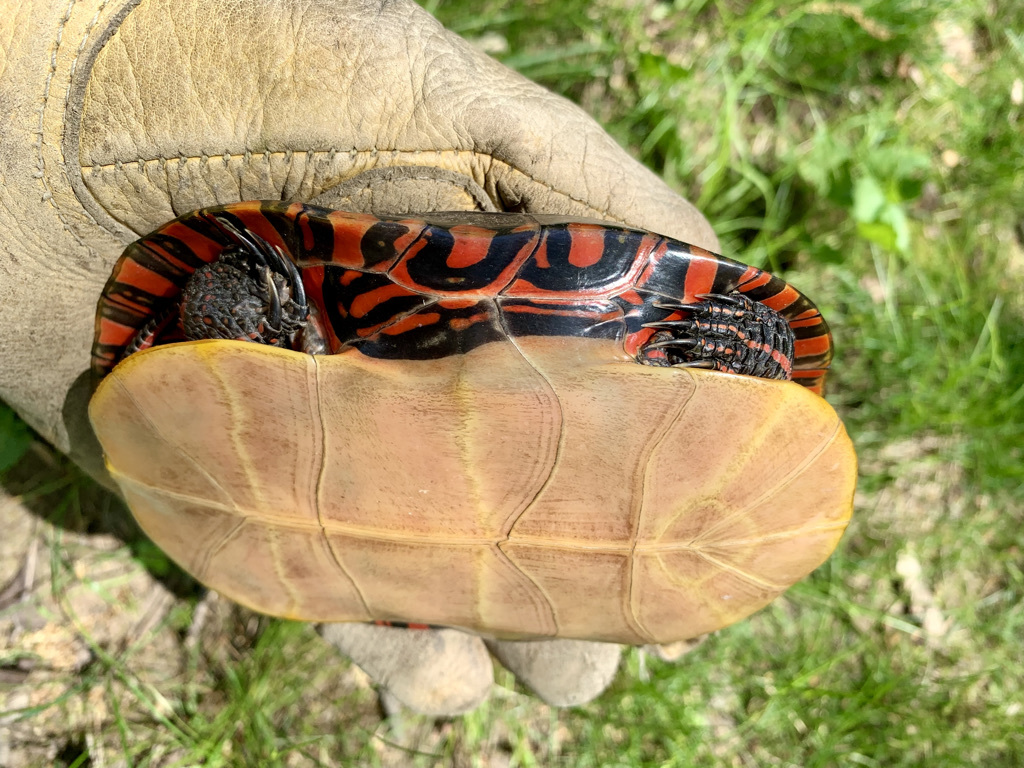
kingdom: Animalia
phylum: Chordata
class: Testudines
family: Emydidae
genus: Chrysemys
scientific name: Chrysemys picta
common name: Painted turtle
